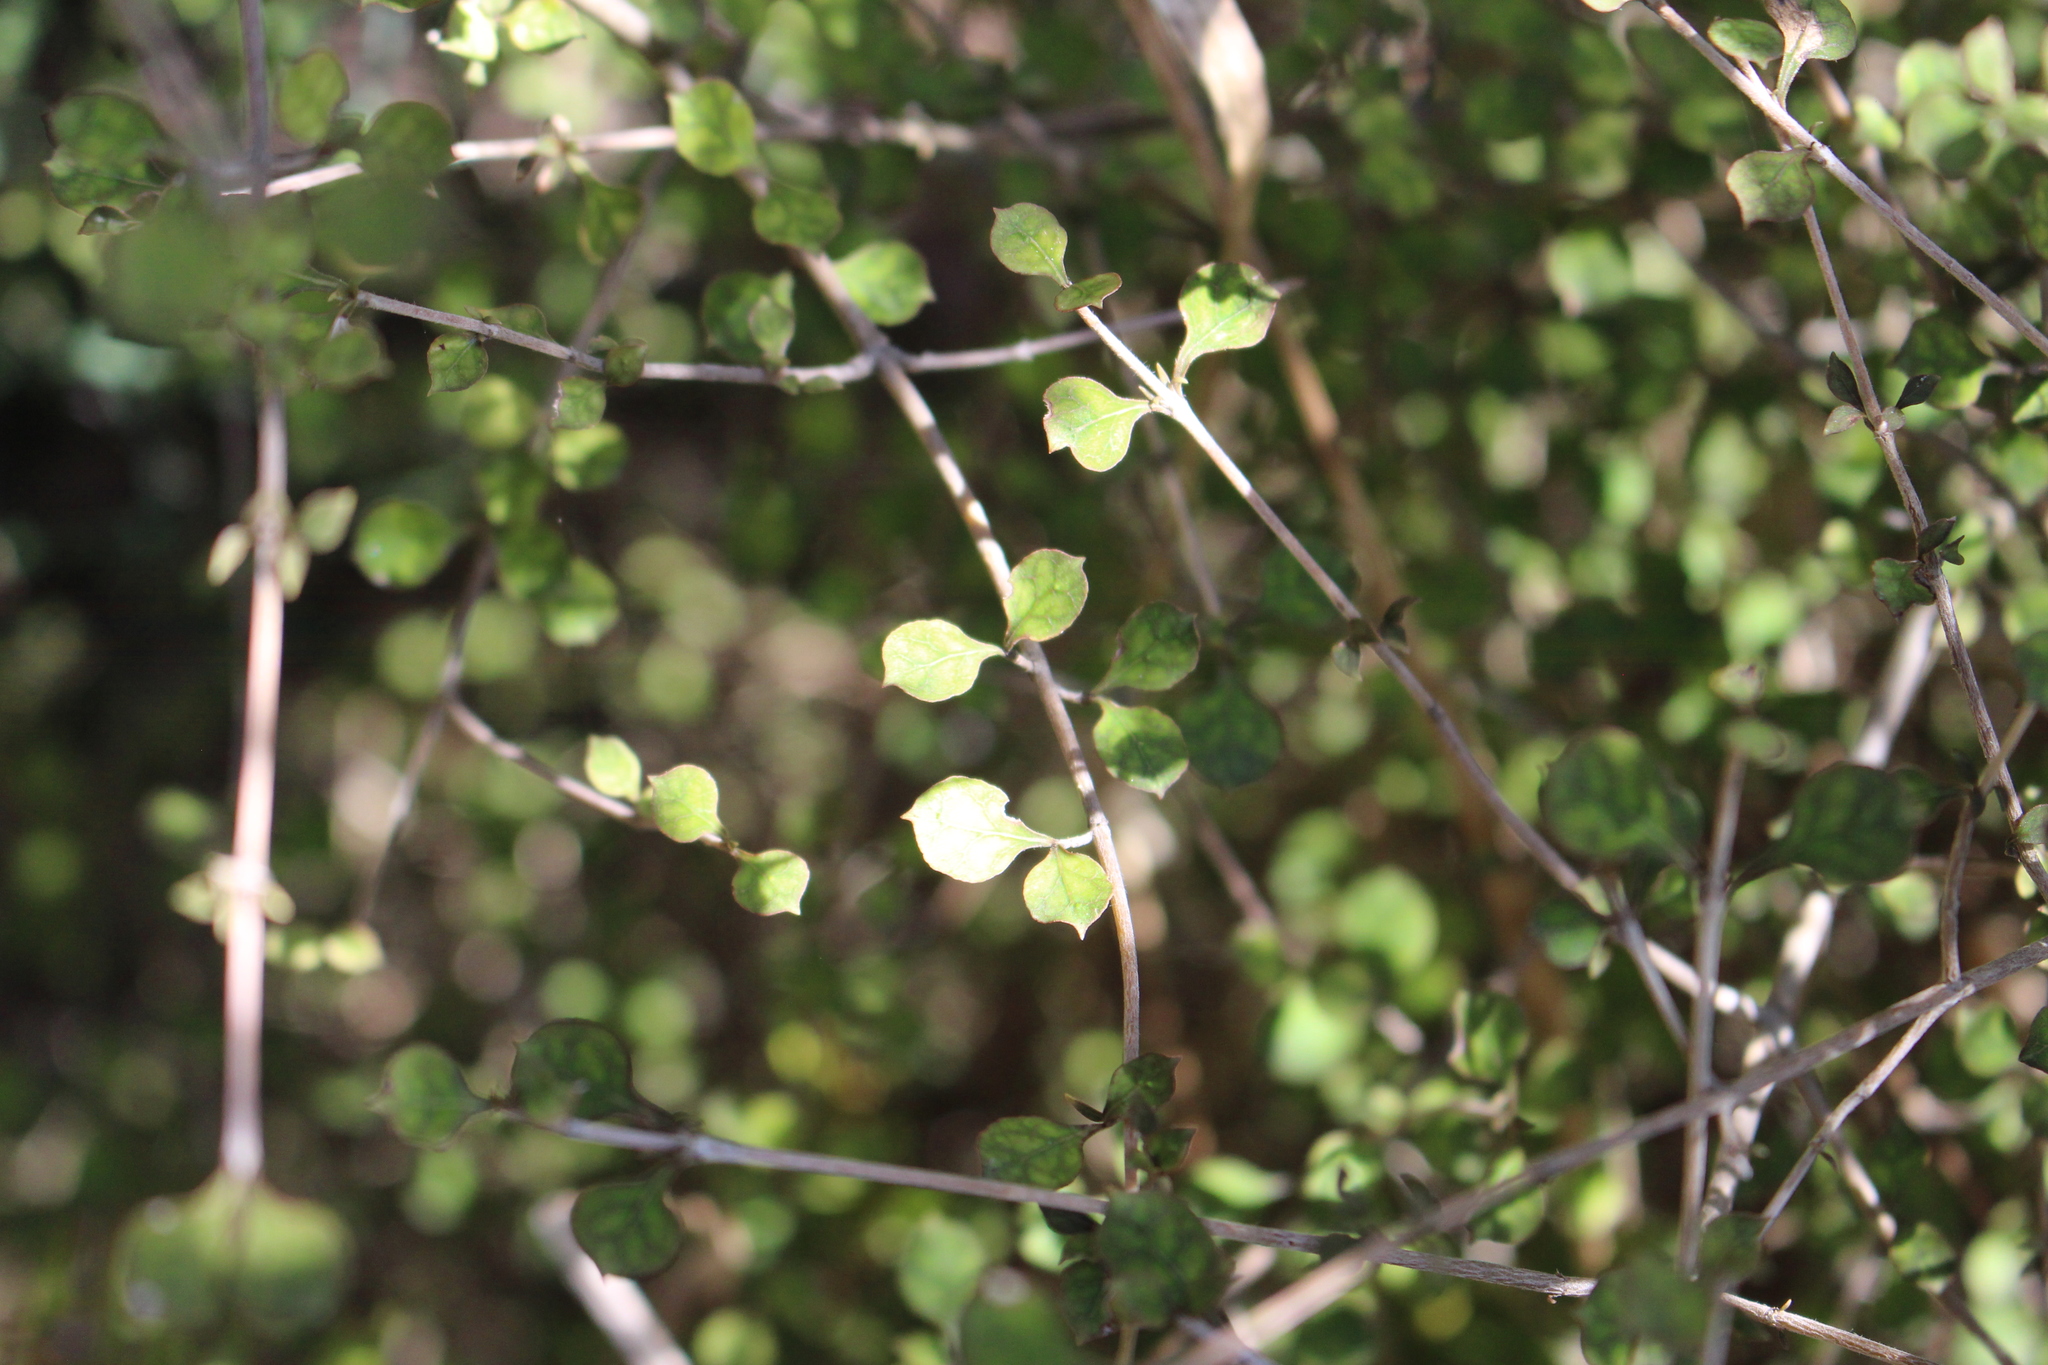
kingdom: Plantae
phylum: Tracheophyta
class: Magnoliopsida
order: Gentianales
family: Rubiaceae
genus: Coprosma
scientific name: Coprosma areolata
